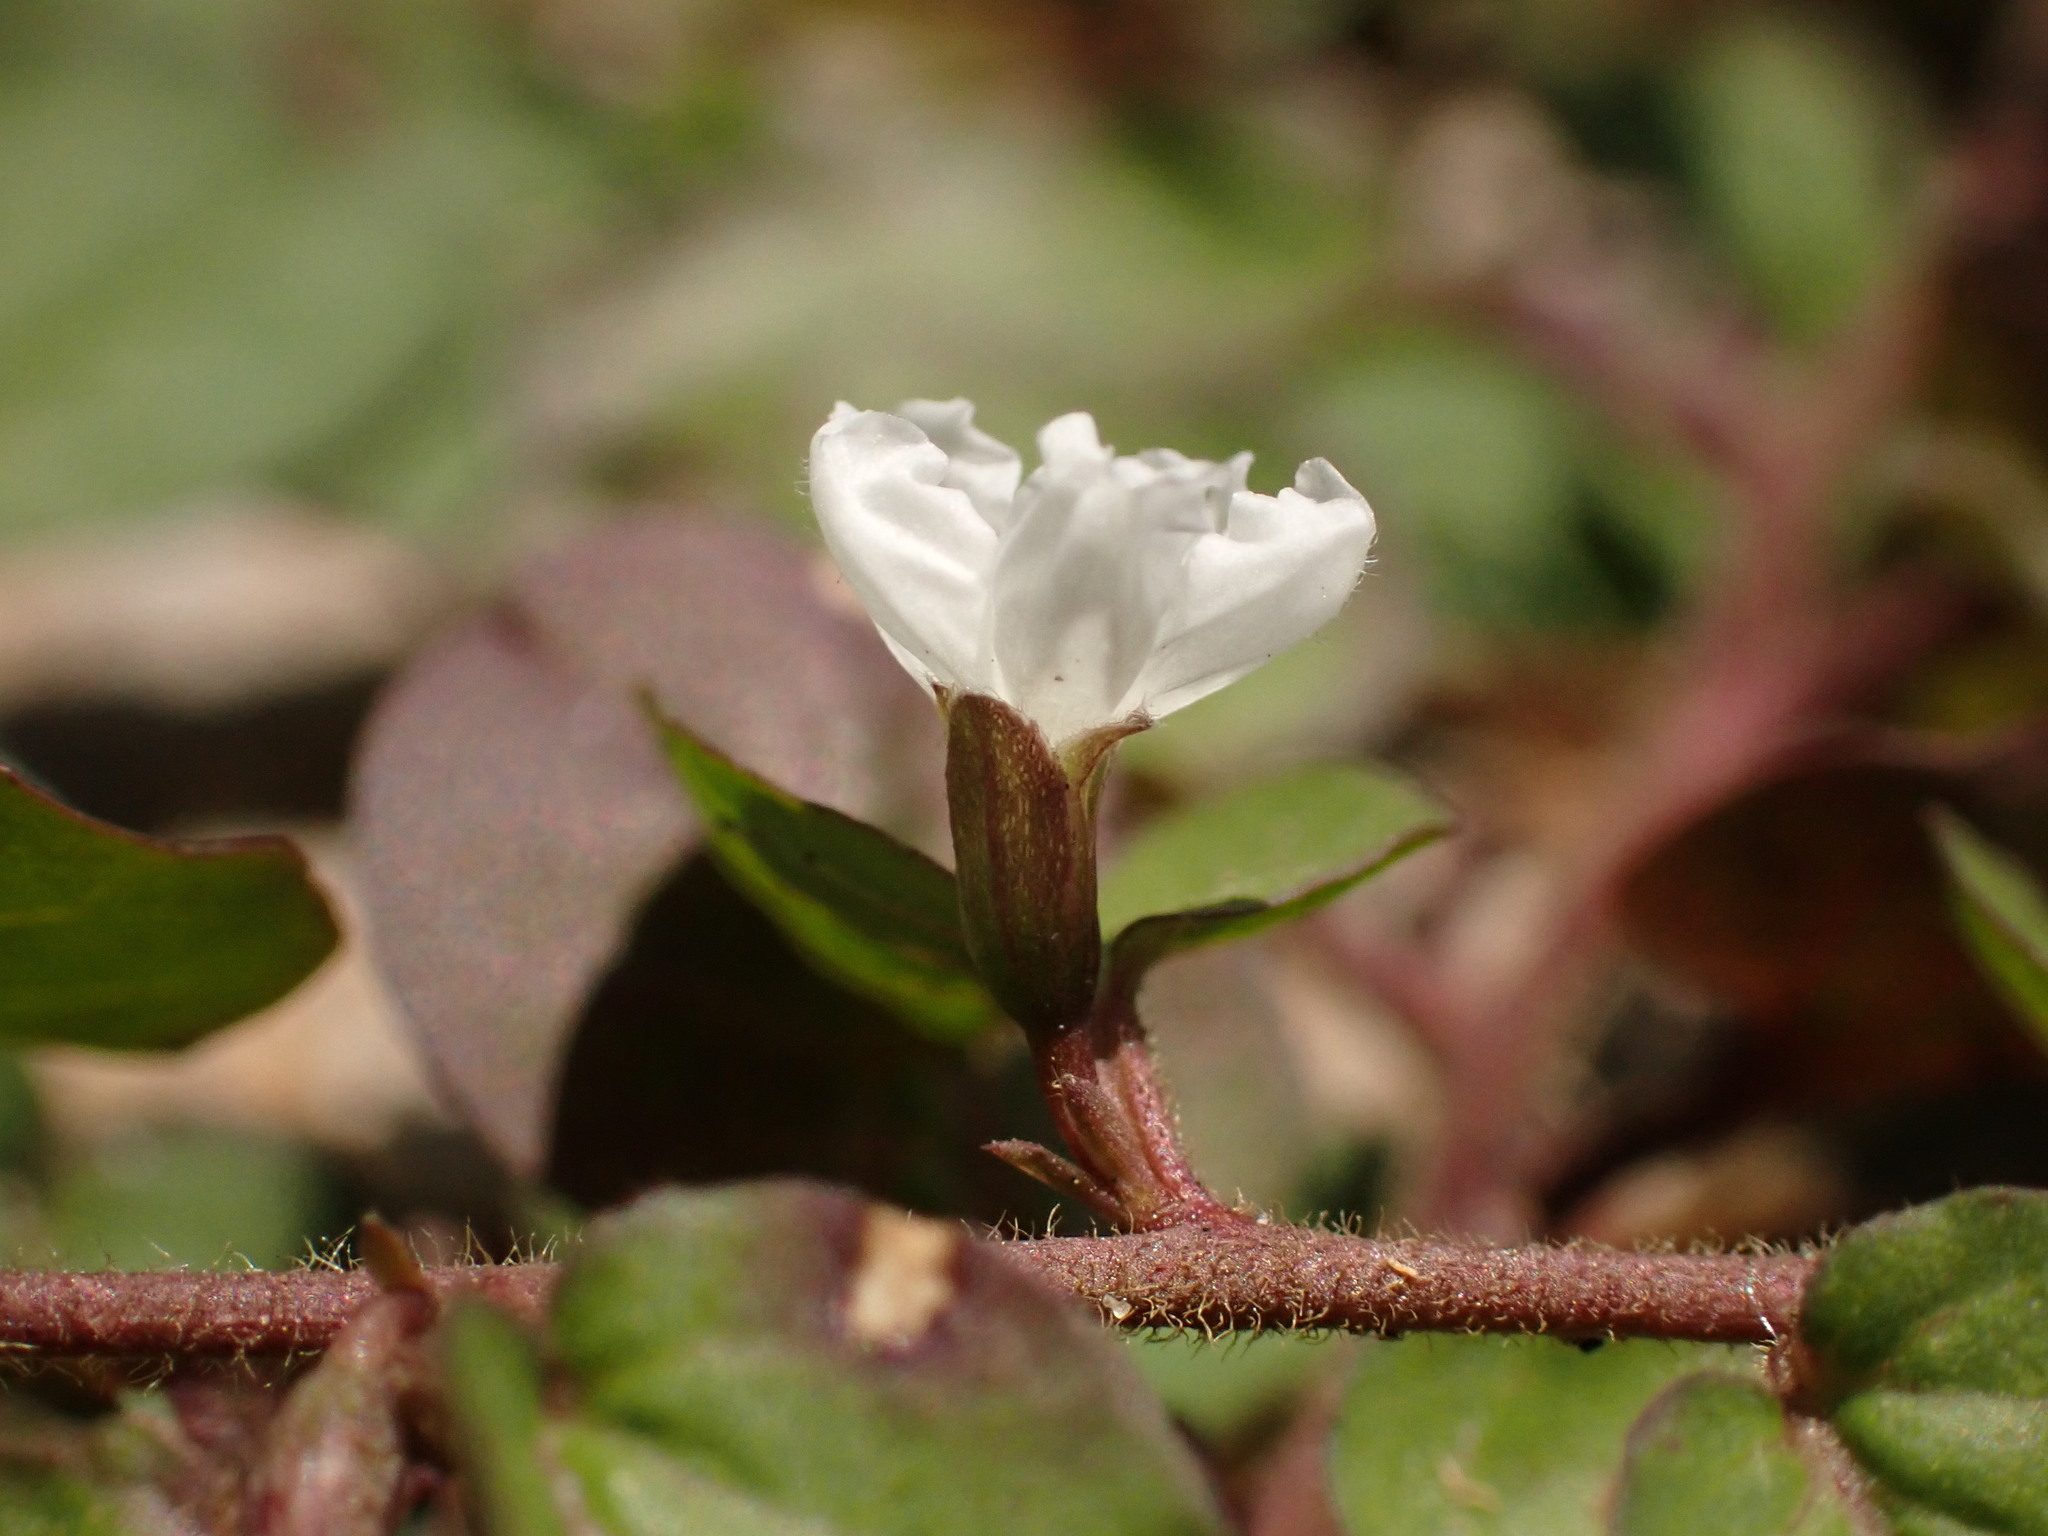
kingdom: Plantae
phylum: Tracheophyta
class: Magnoliopsida
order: Solanales
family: Convolvulaceae
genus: Evolvulus
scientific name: Evolvulus nummularius
